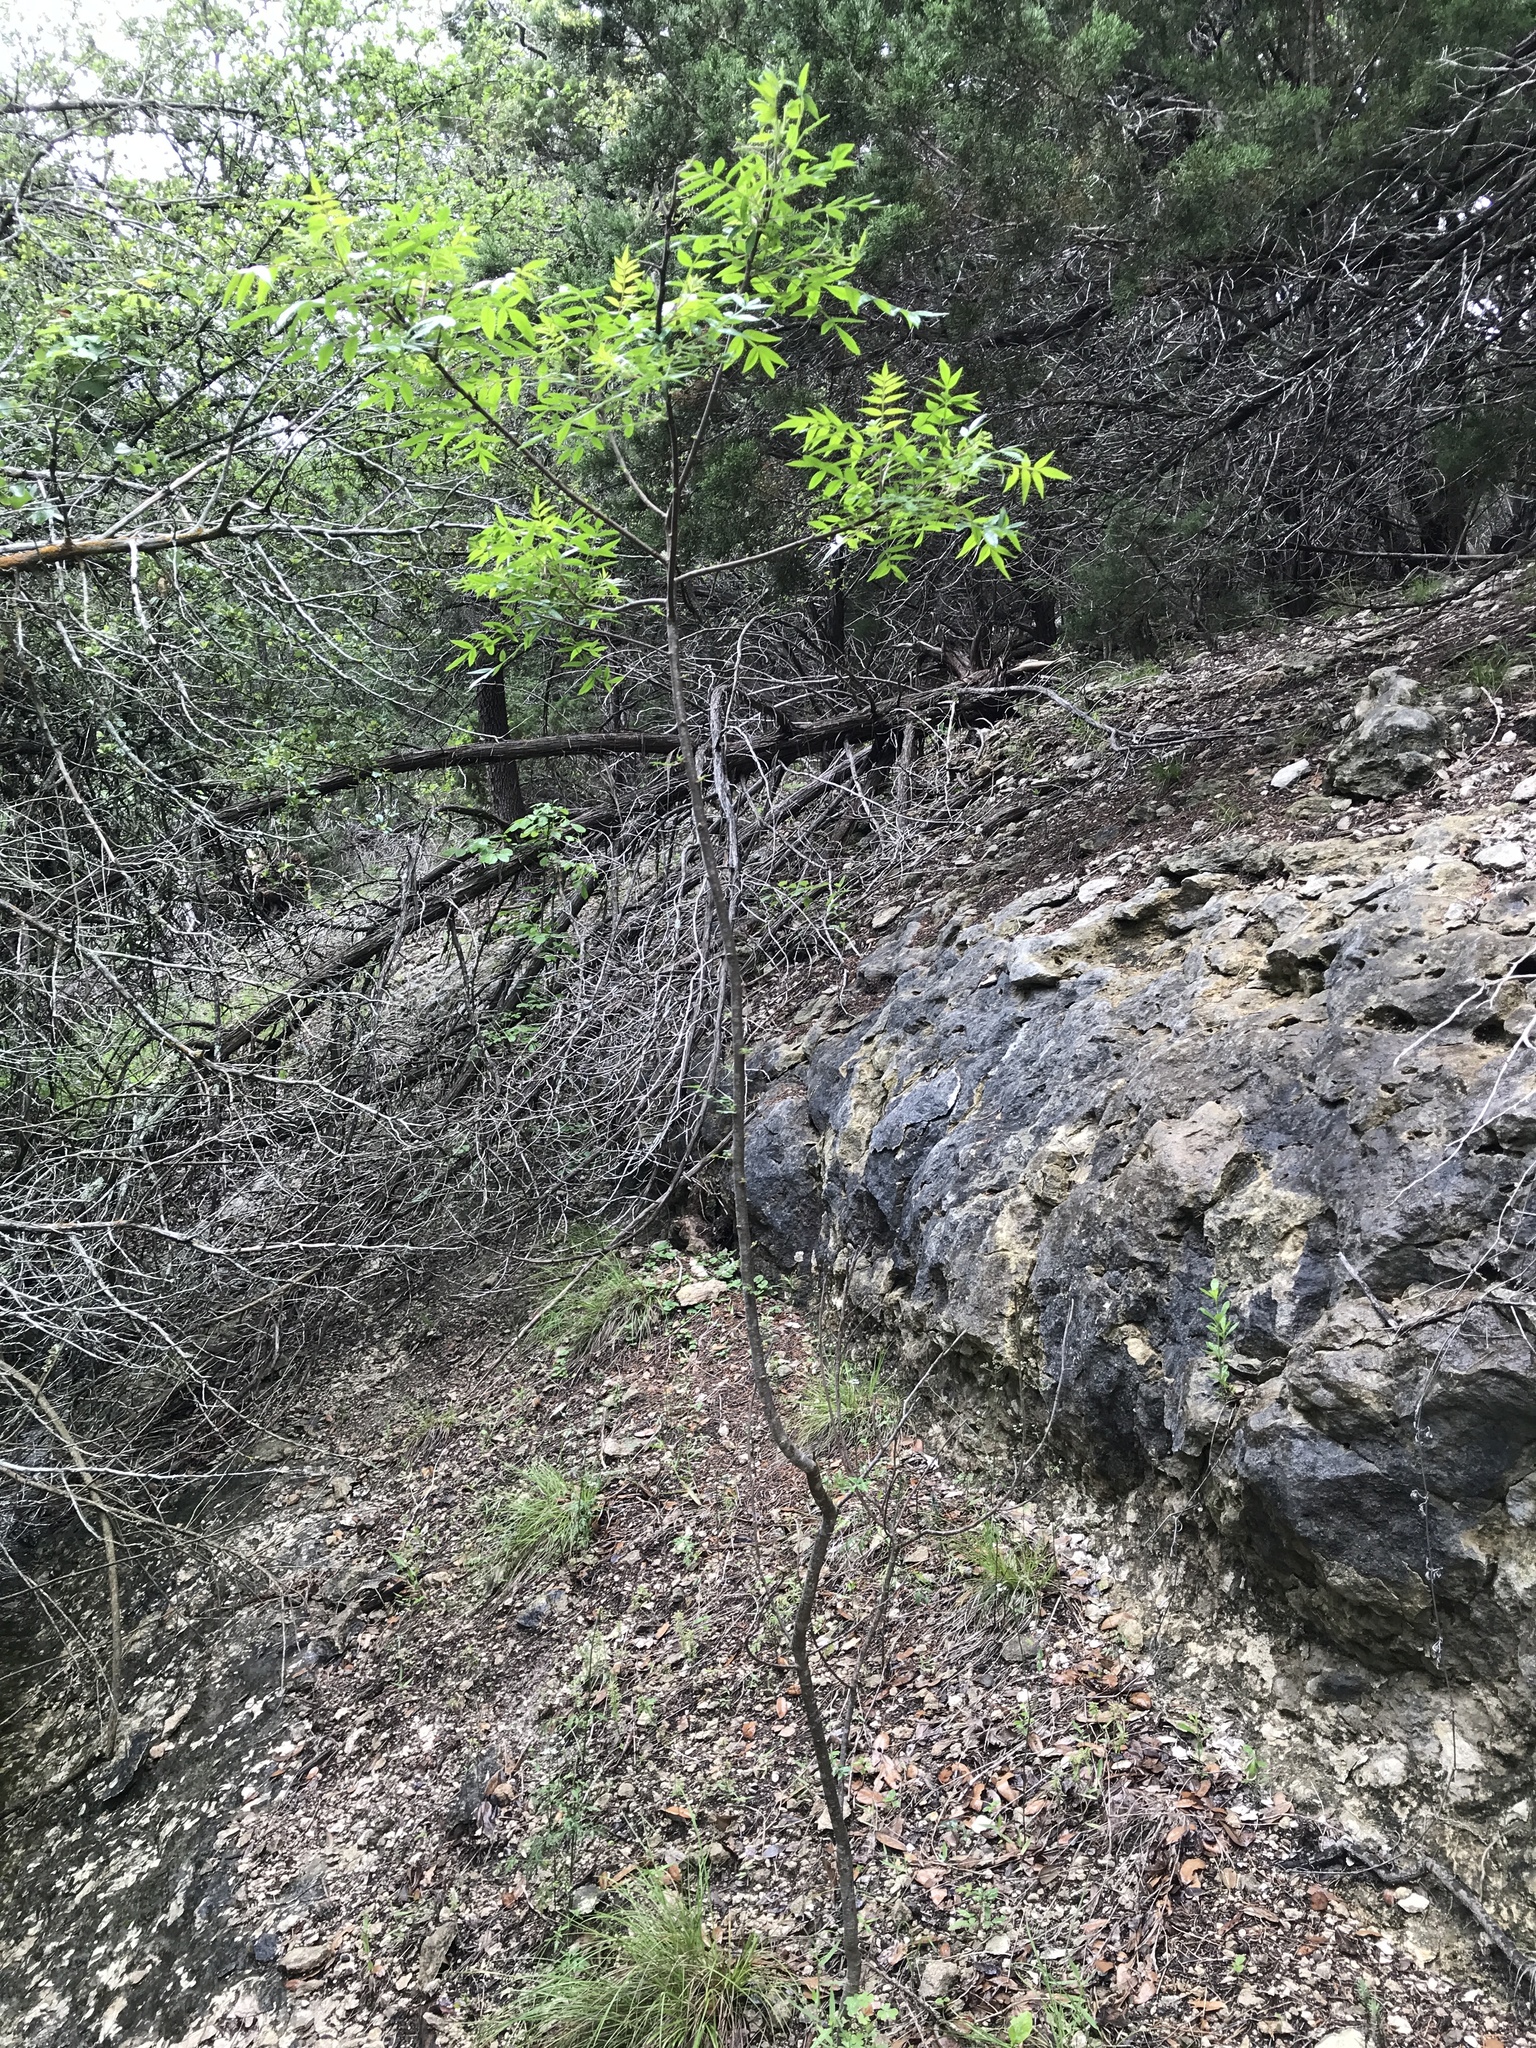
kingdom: Plantae
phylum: Tracheophyta
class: Magnoliopsida
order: Sapindales
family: Anacardiaceae
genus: Rhus
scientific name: Rhus lanceolata
